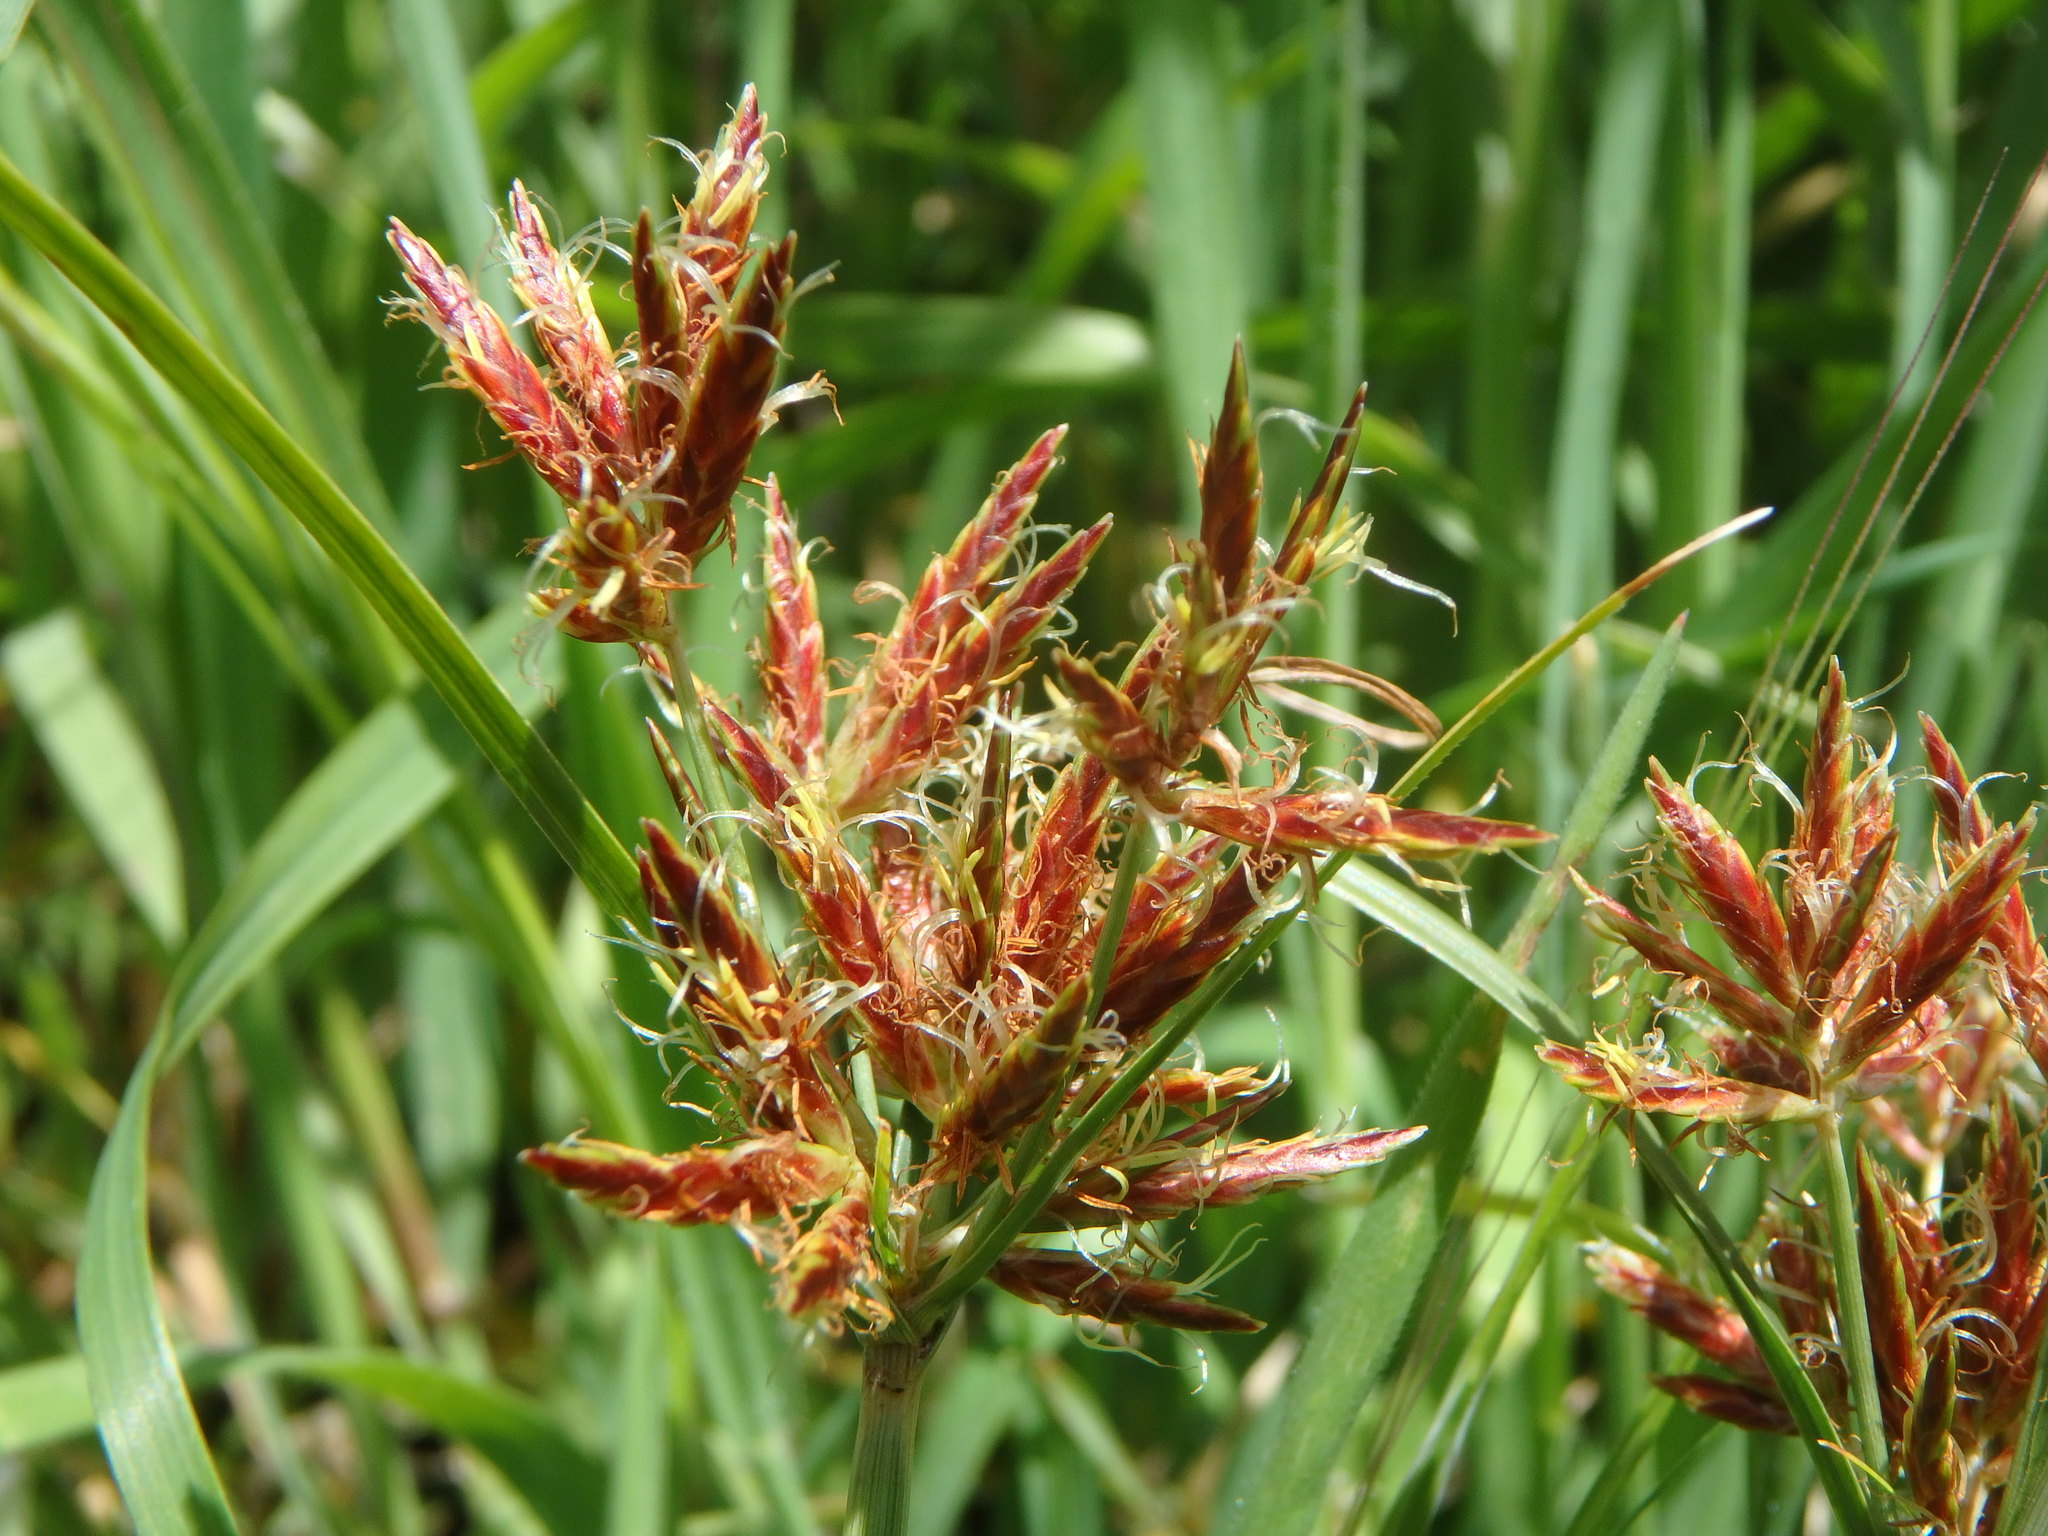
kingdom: Plantae
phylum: Tracheophyta
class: Liliopsida
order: Poales
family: Cyperaceae
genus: Cyperus
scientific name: Cyperus rotundus
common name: Nutgrass
